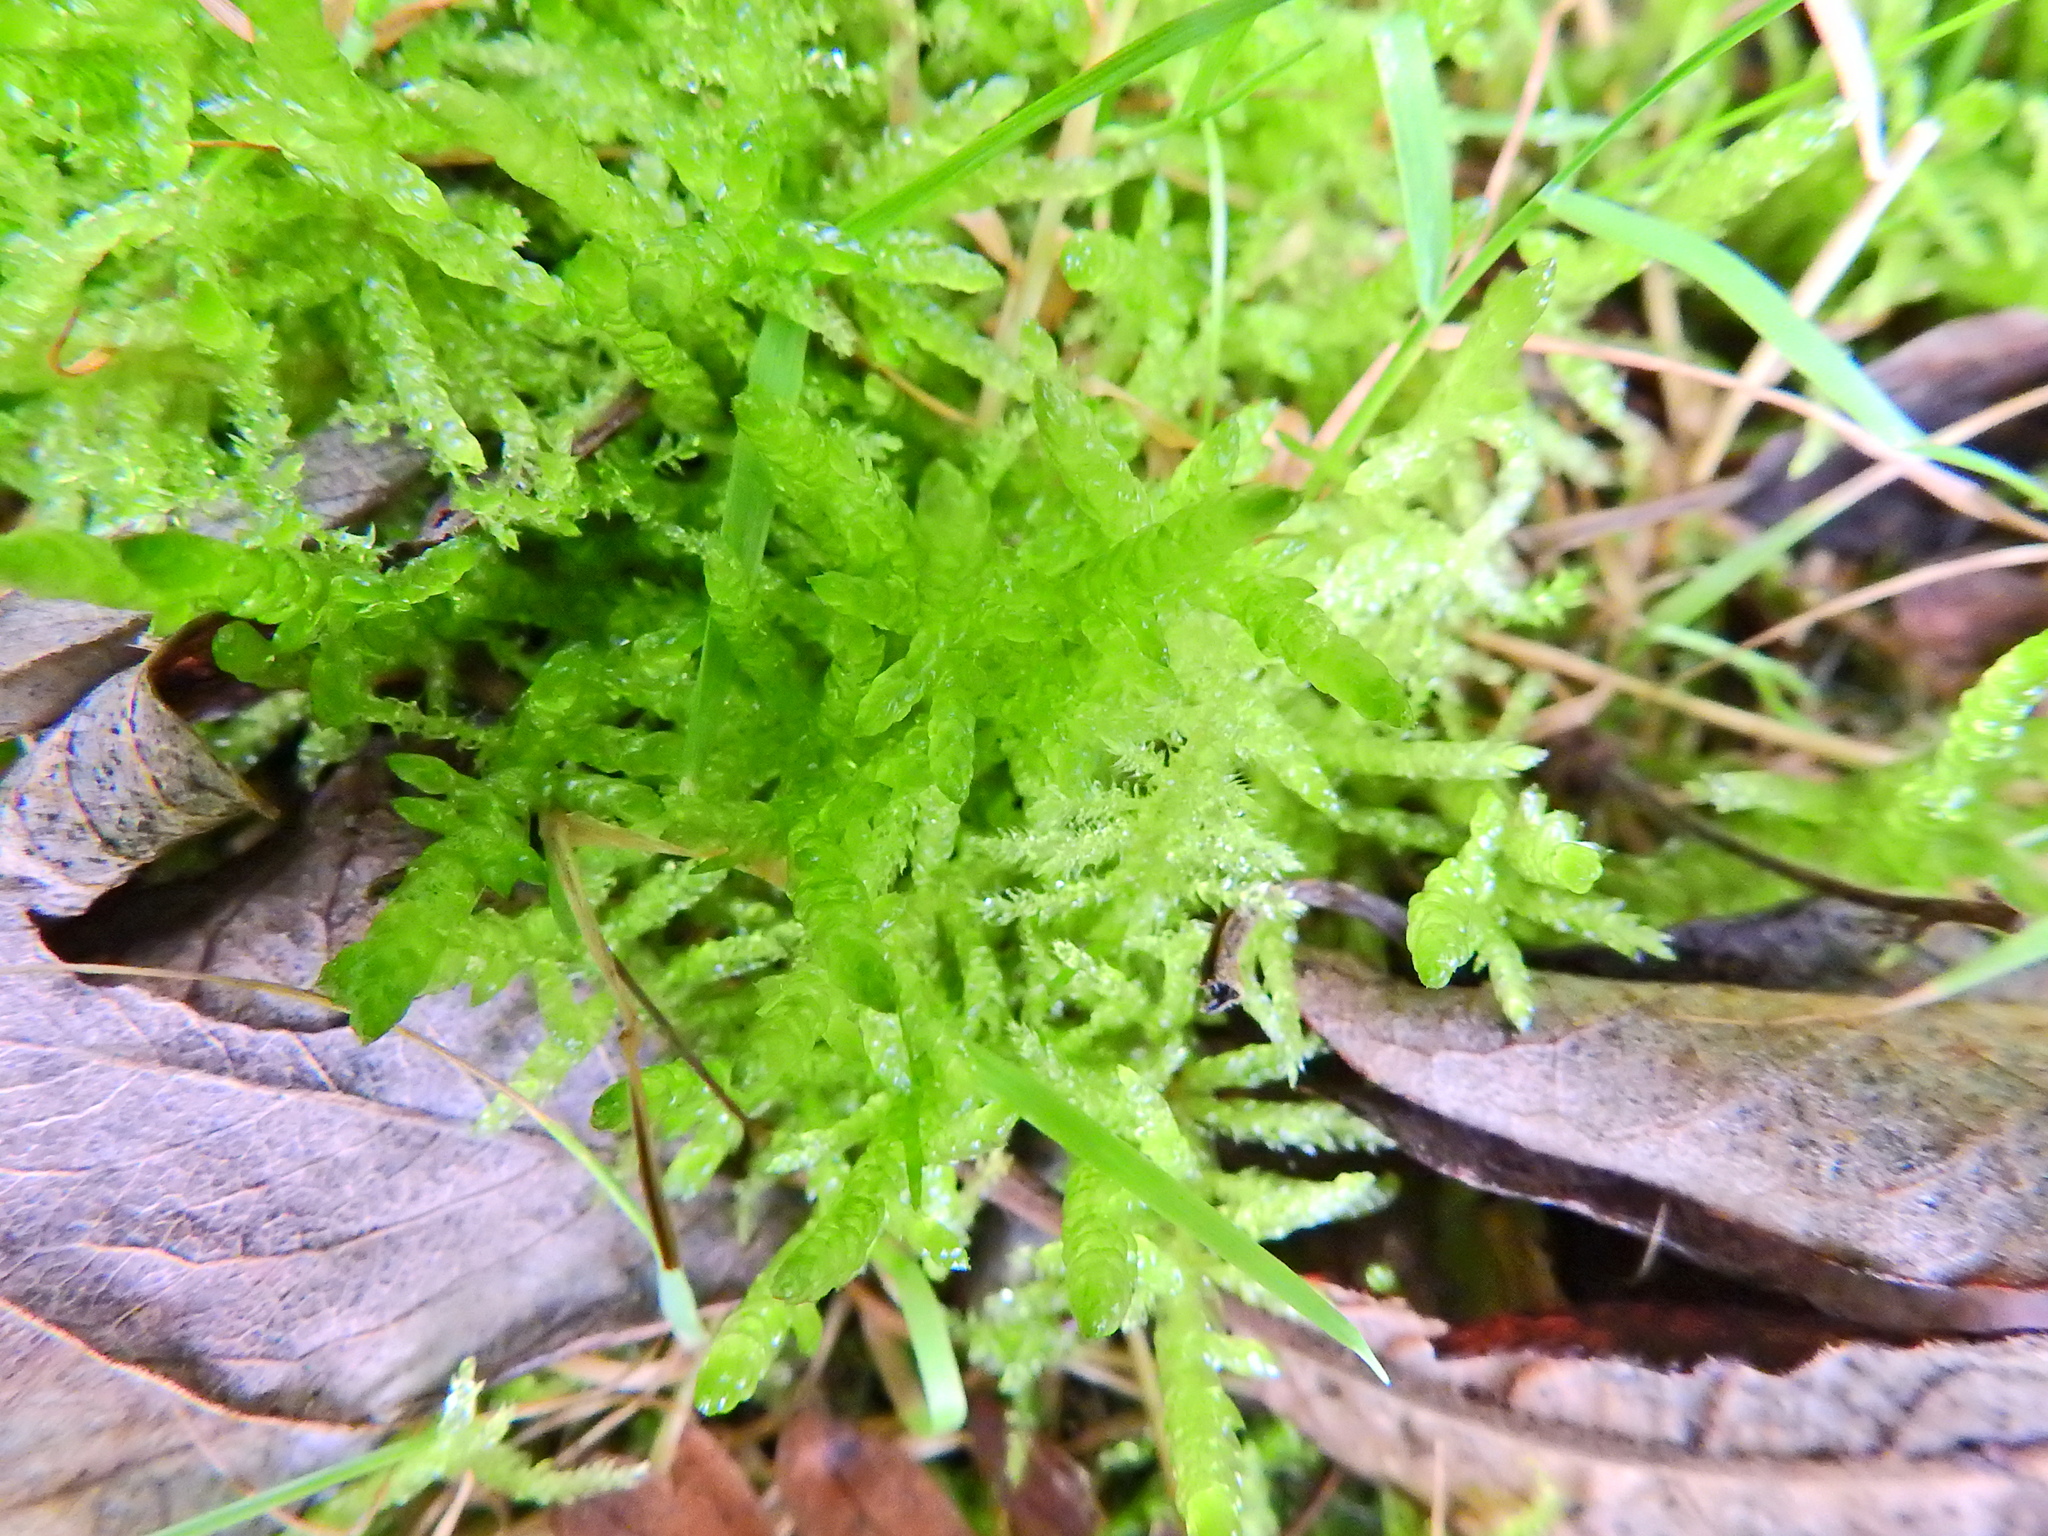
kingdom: Plantae
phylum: Bryophyta
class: Bryopsida
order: Hypnales
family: Brachytheciaceae
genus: Pseudoscleropodium
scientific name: Pseudoscleropodium purum
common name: Neat feather-moss
